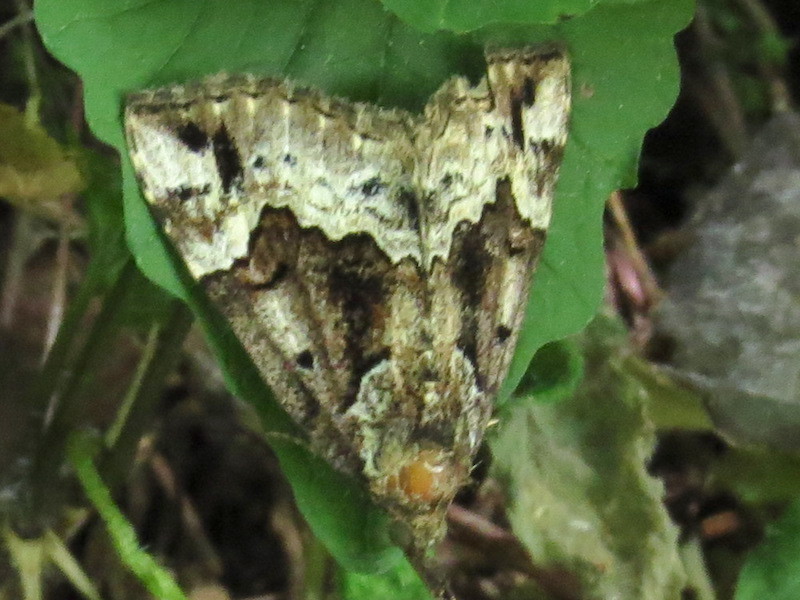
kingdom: Animalia
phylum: Arthropoda
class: Insecta
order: Lepidoptera
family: Erebidae
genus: Hypena
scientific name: Hypena palparia
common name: Mottled bomolocha moth
